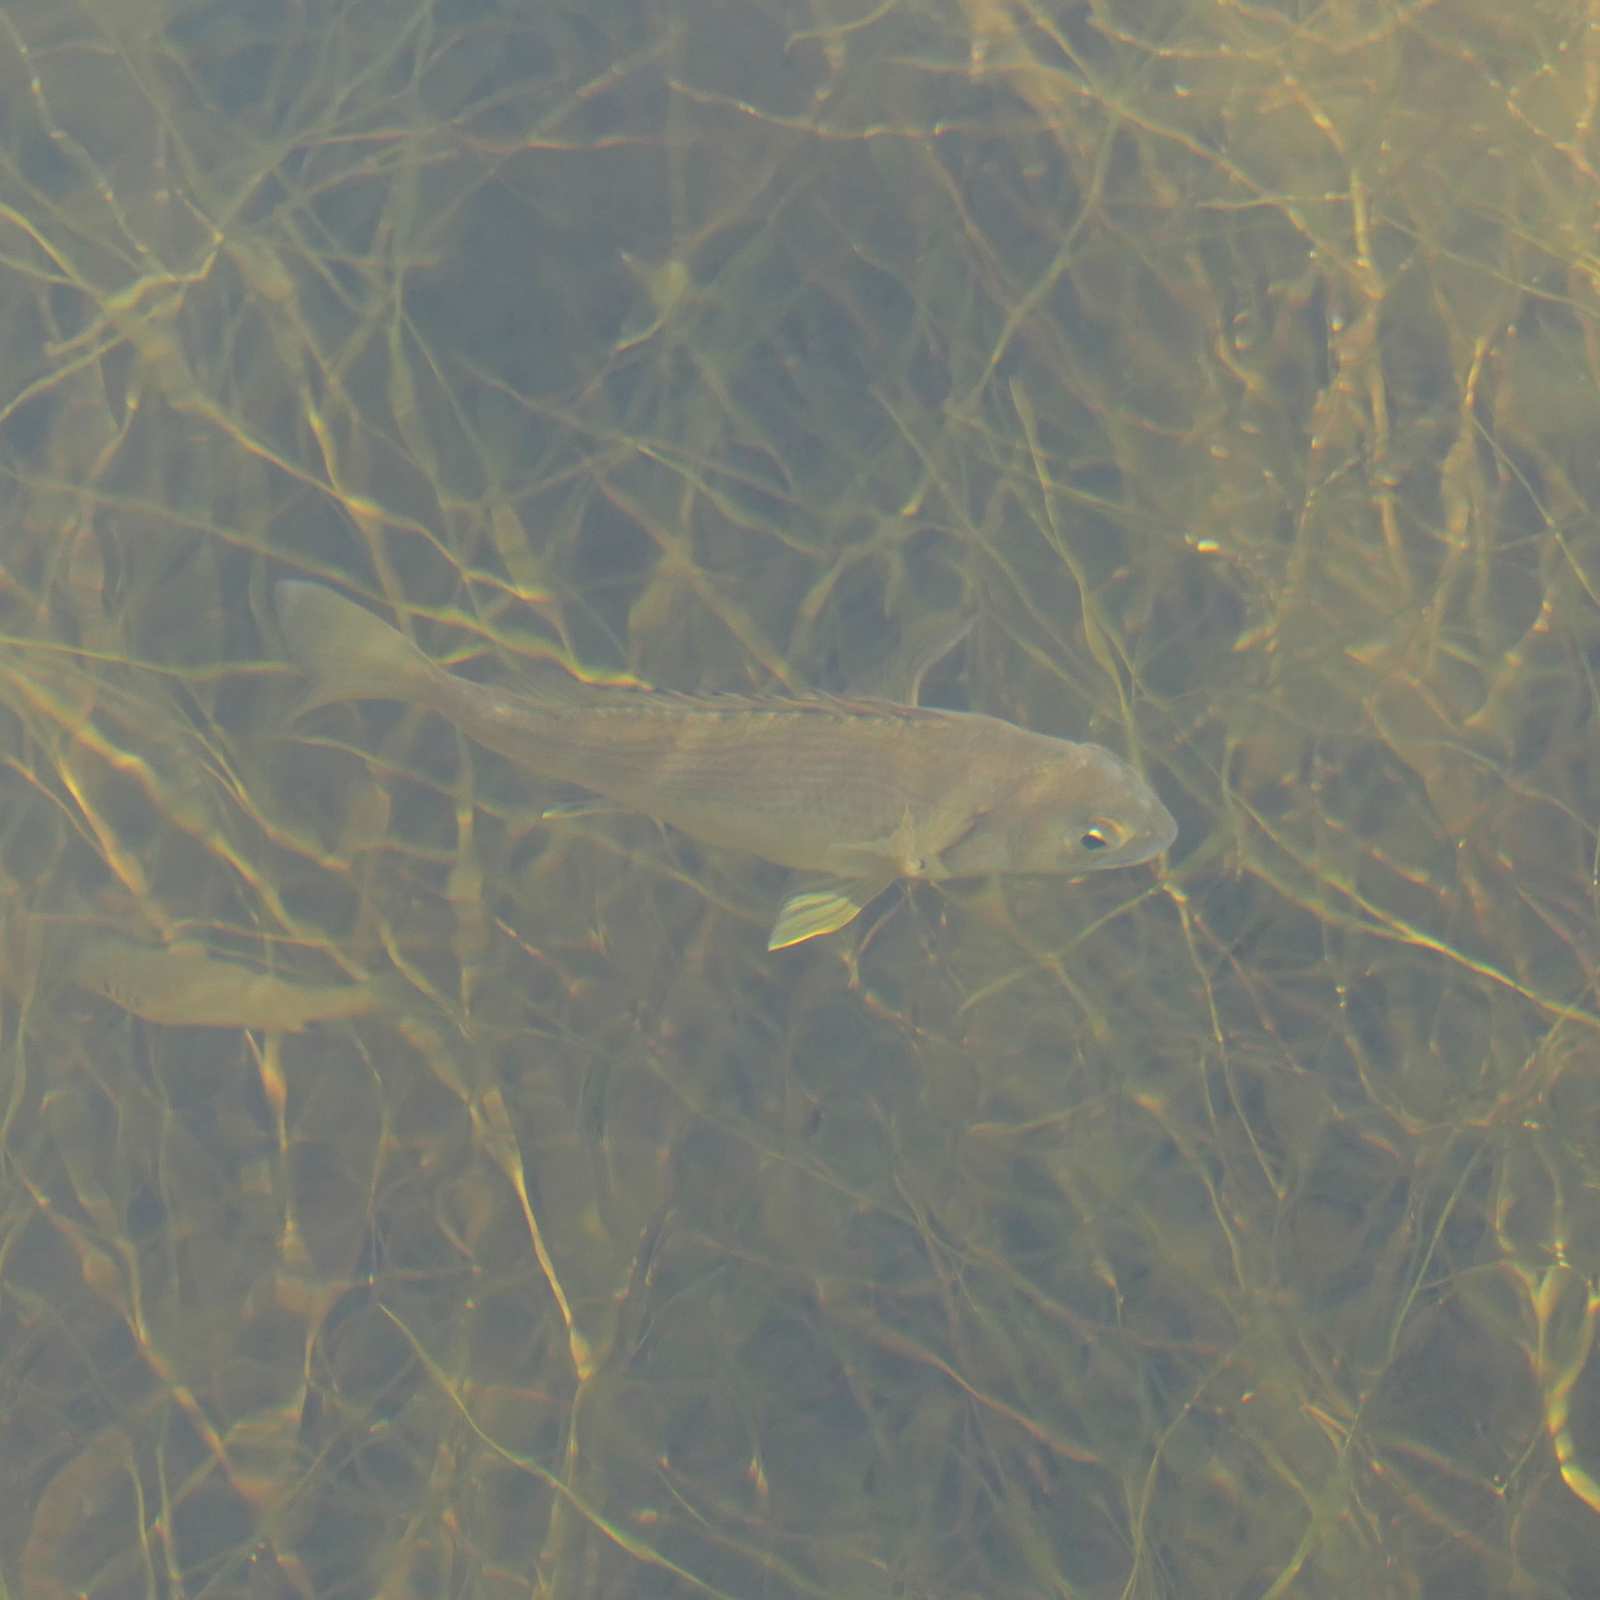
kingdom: Animalia
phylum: Chordata
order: Perciformes
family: Sparidae
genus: Acanthopagrus
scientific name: Acanthopagrus butcheri
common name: Black bream
